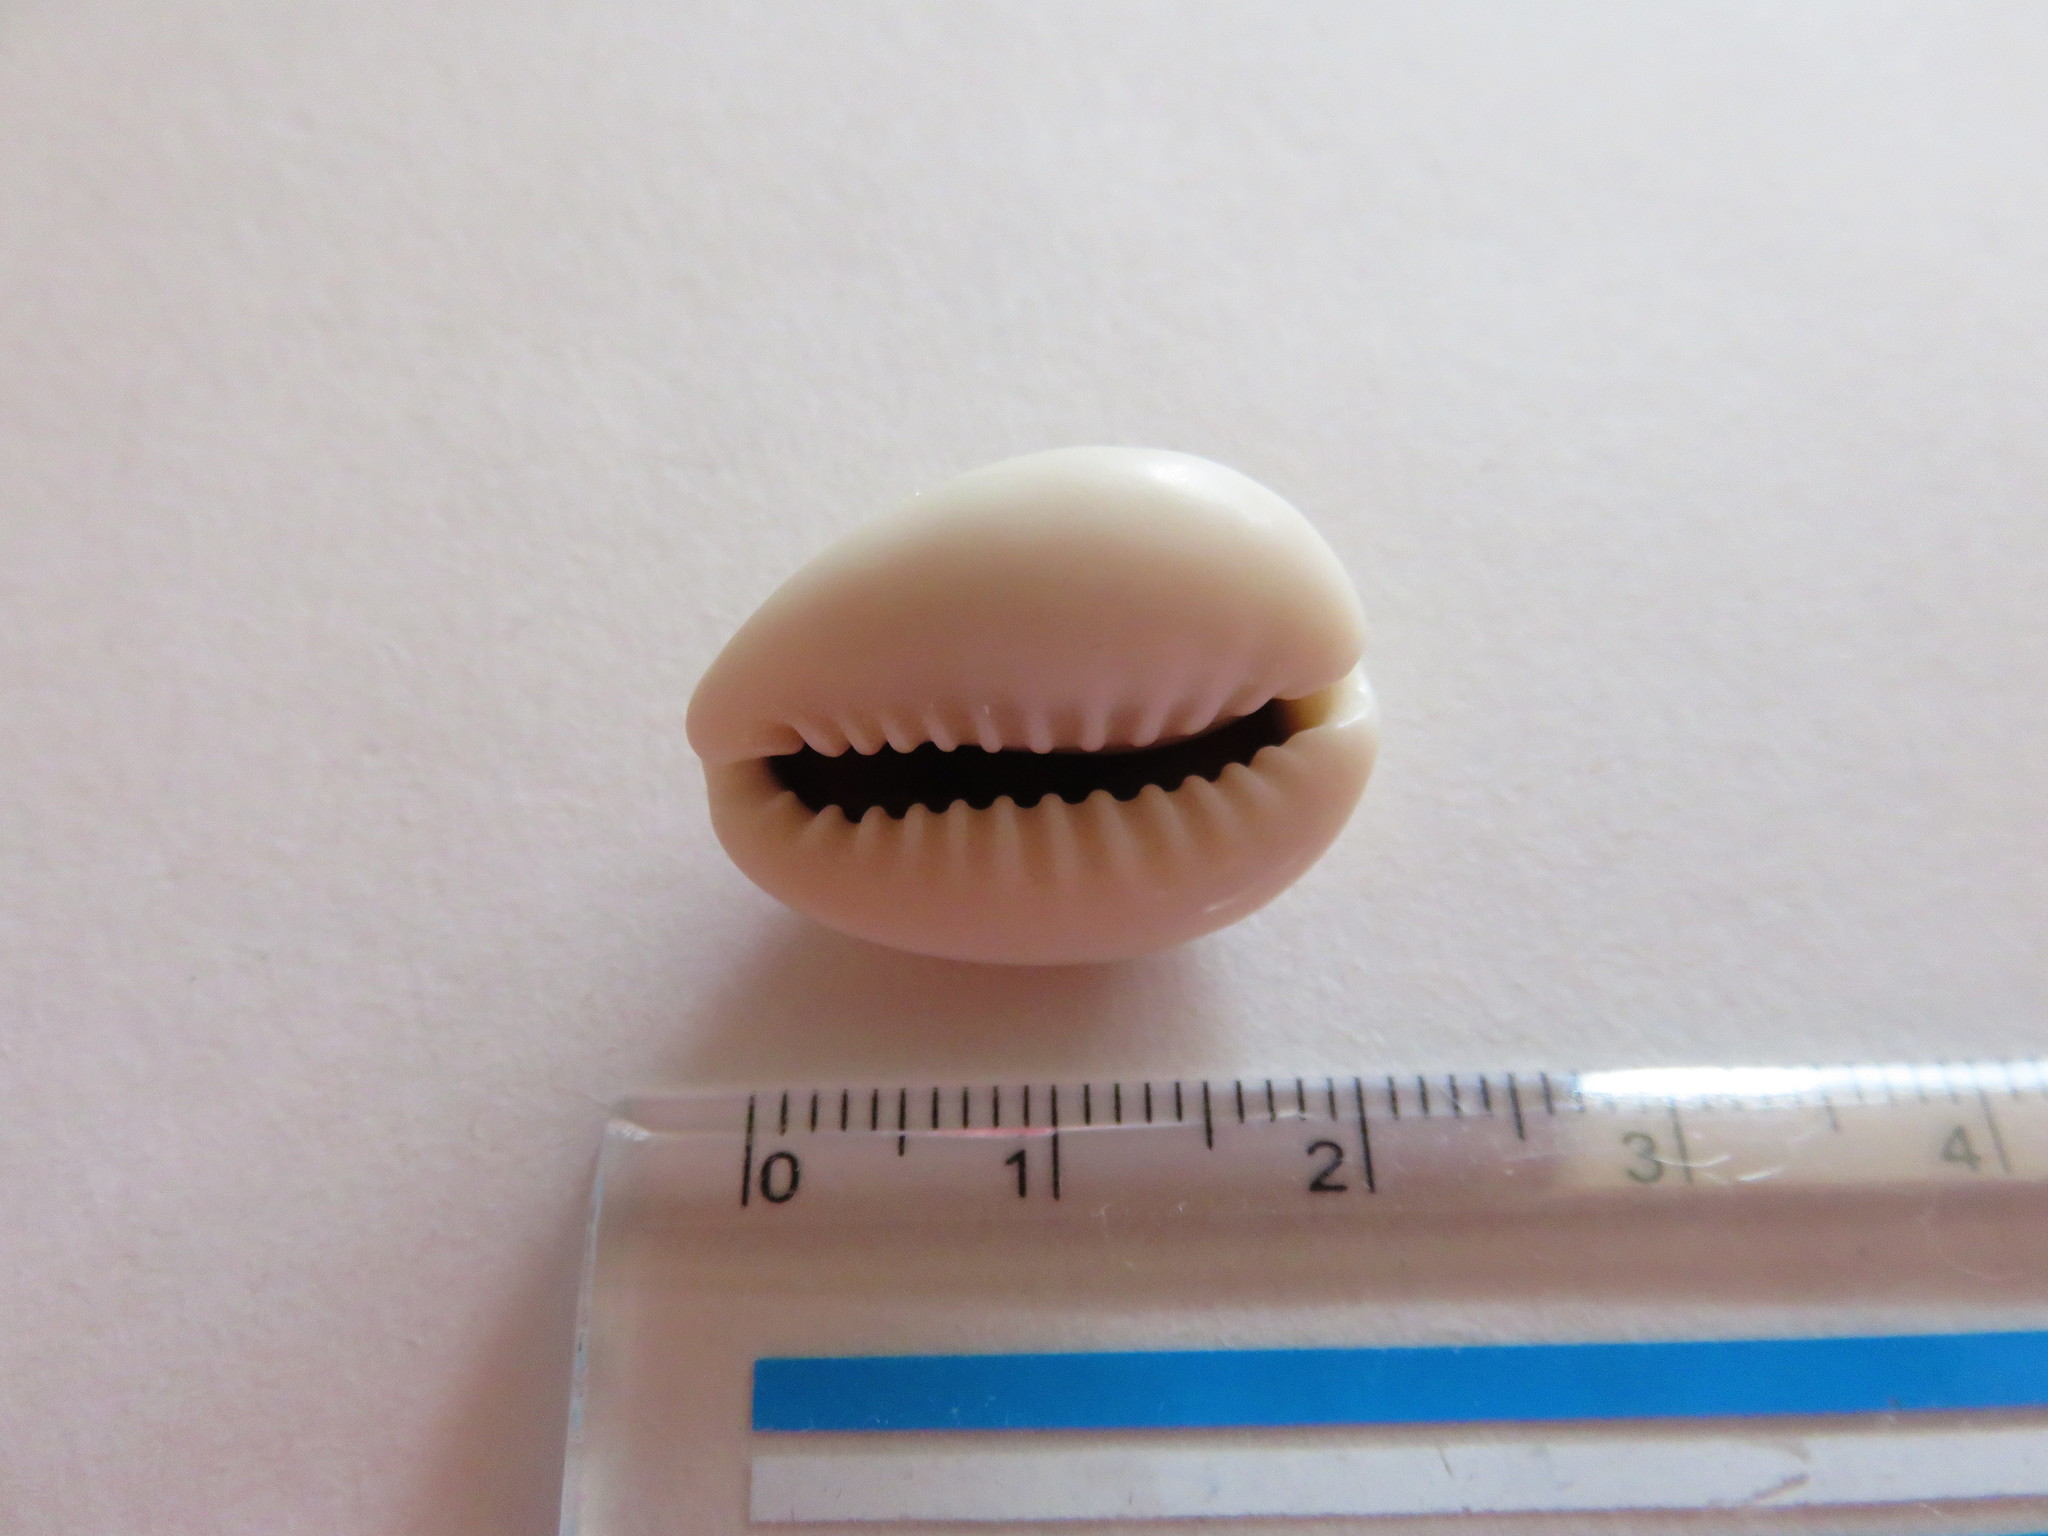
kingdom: Animalia
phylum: Mollusca
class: Gastropoda
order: Littorinimorpha
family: Cypraeidae
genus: Monetaria
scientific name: Monetaria annulus
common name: Ring cowrie
